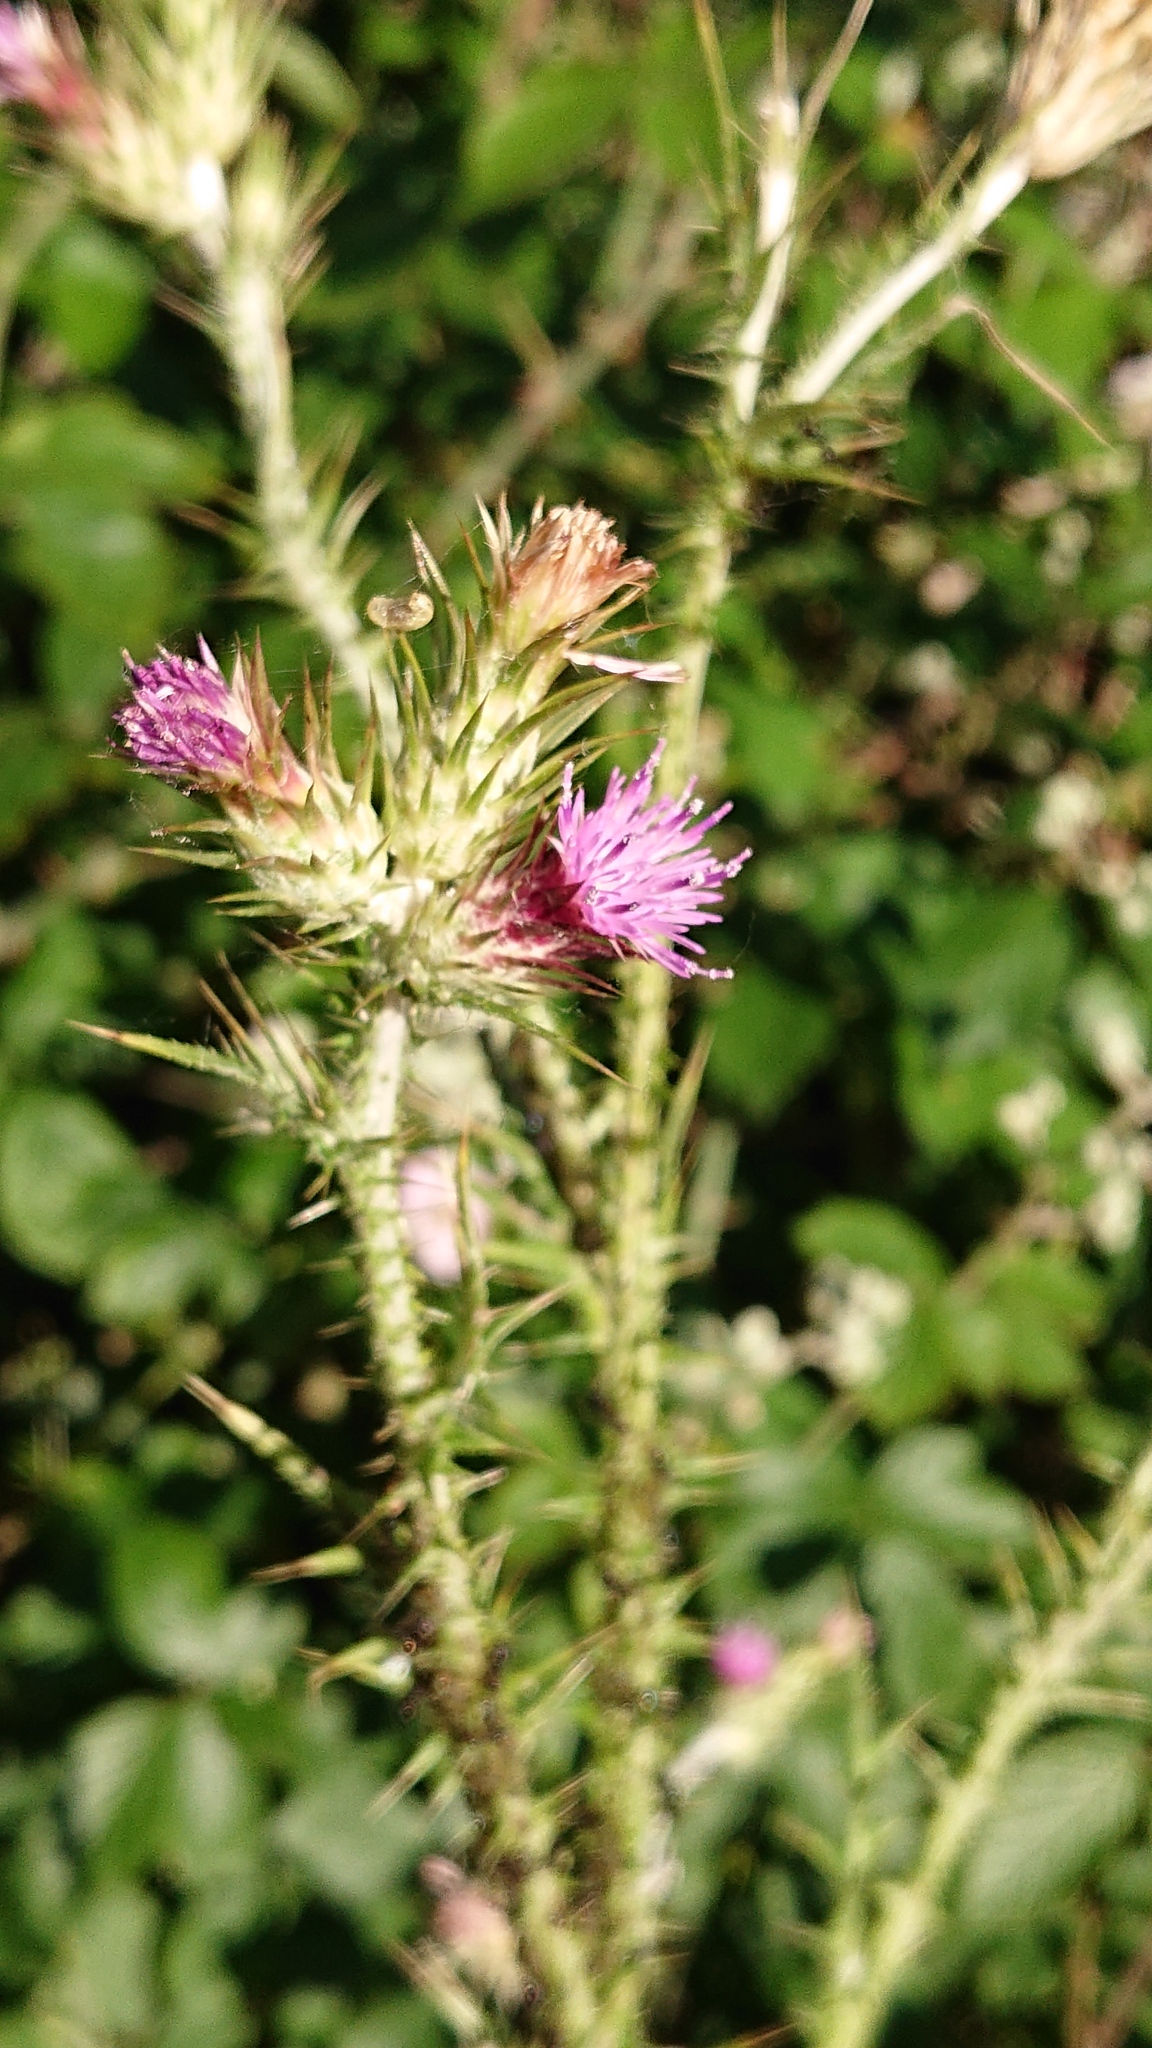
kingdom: Plantae
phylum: Tracheophyta
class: Magnoliopsida
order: Asterales
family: Asteraceae
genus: Carduus
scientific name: Carduus pycnocephalus
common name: Plymouth thistle
